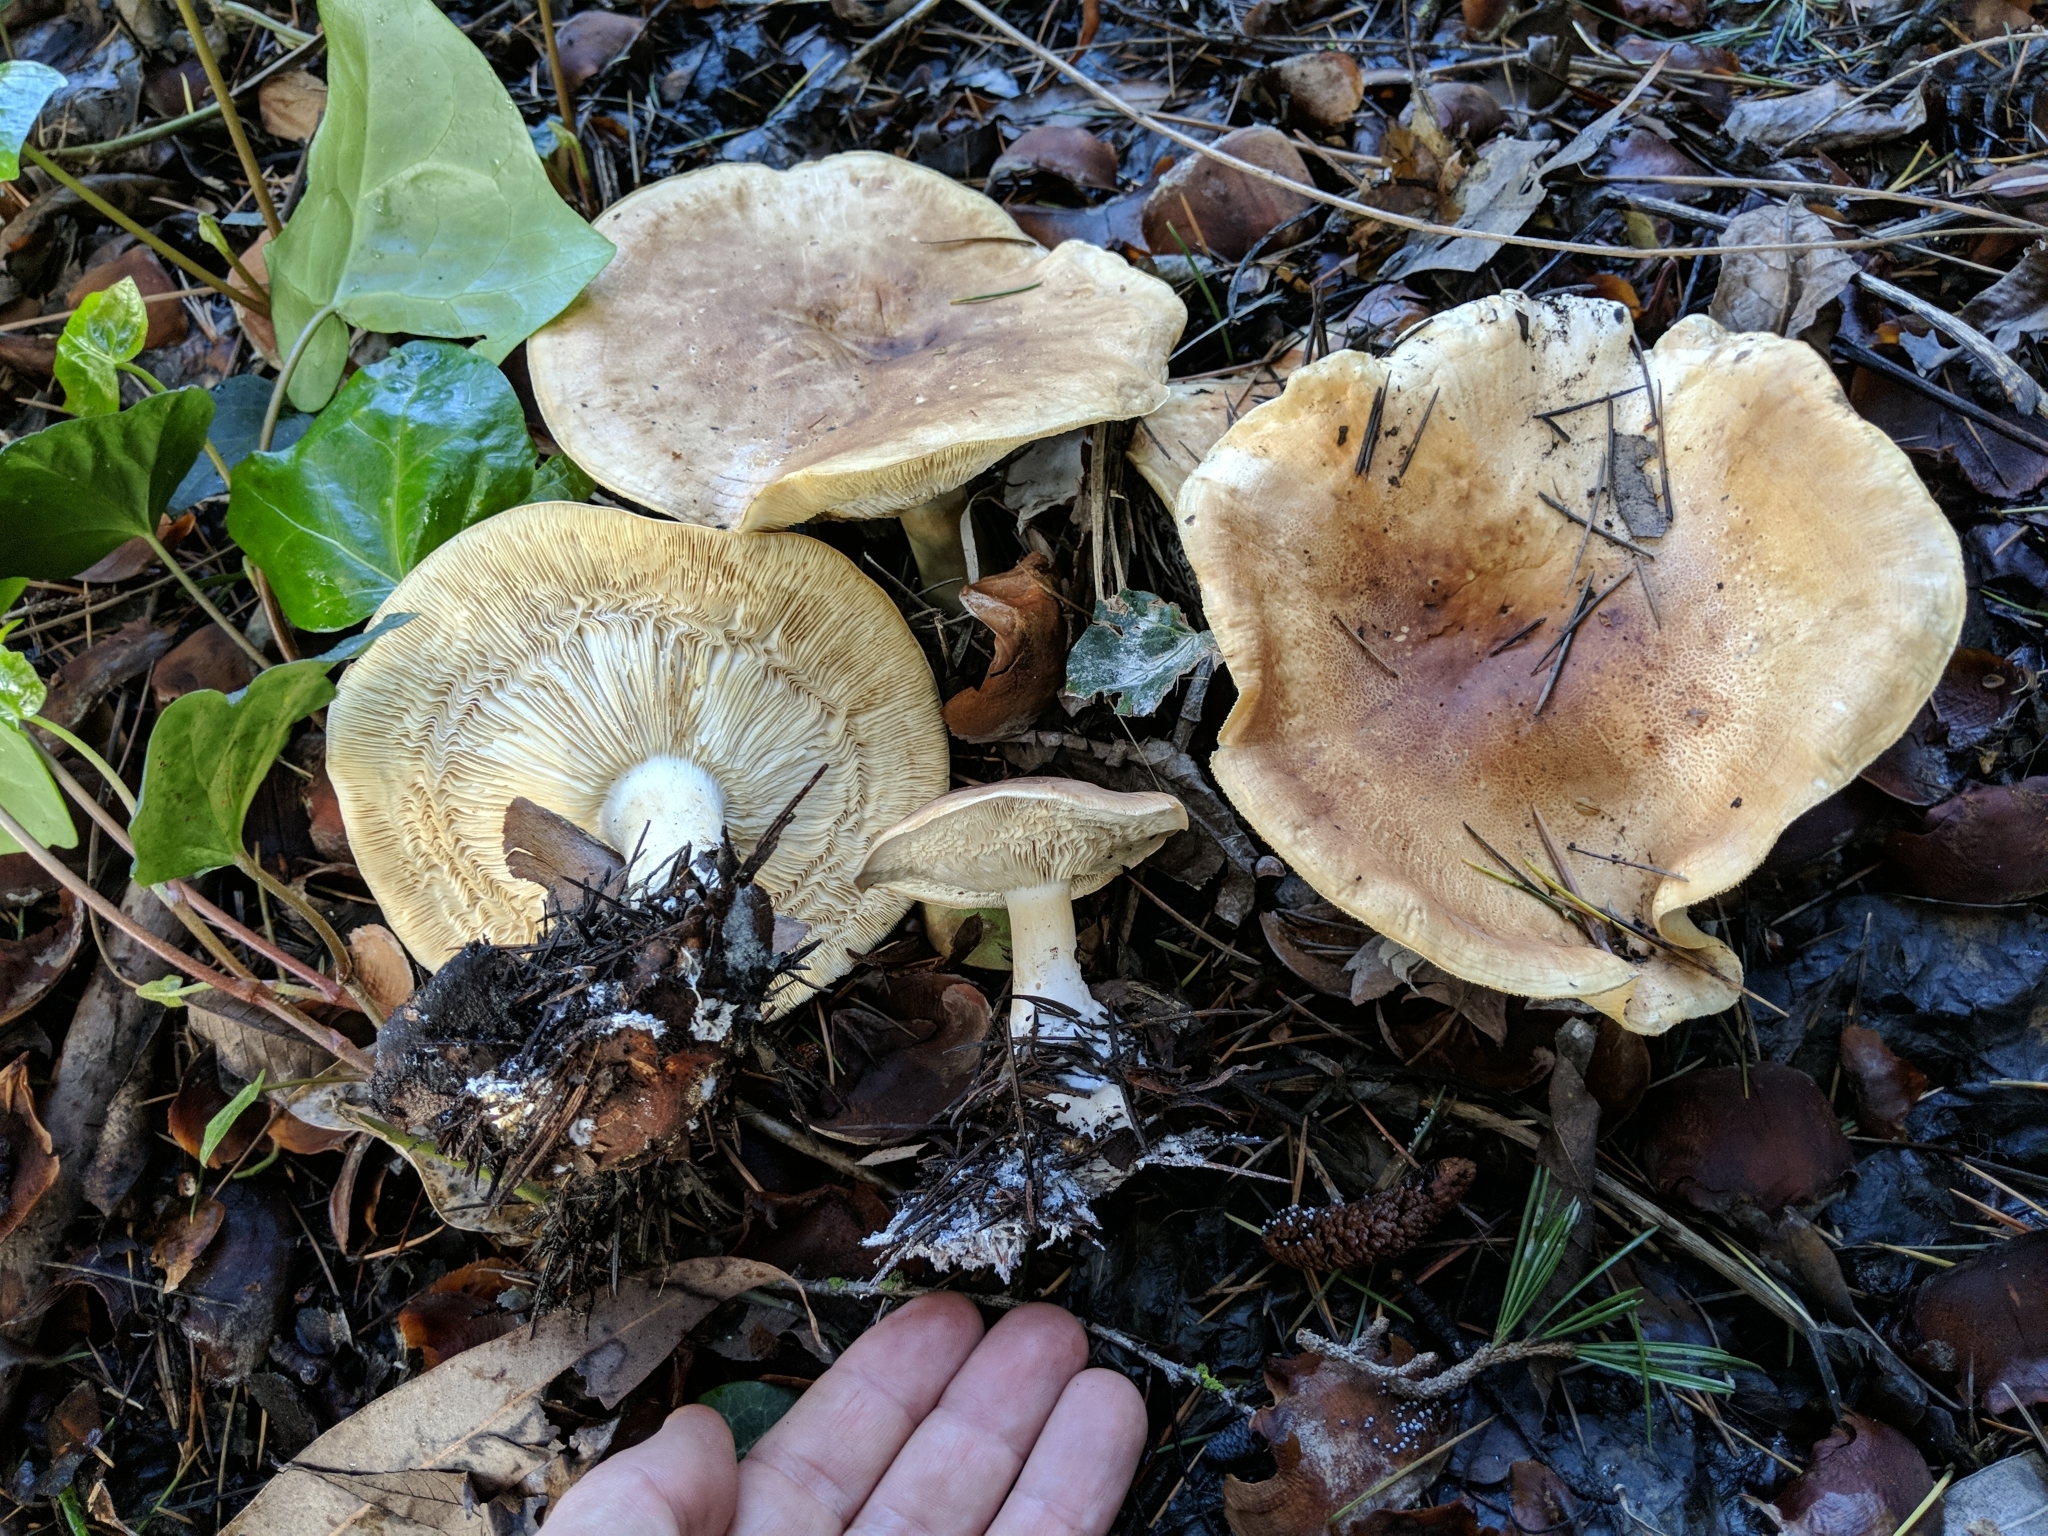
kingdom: Fungi
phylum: Basidiomycota
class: Agaricomycetes
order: Agaricales
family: Tricholomataceae
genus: Leucopaxillus
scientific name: Leucopaxillus gentianeus
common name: Bitter funnel
